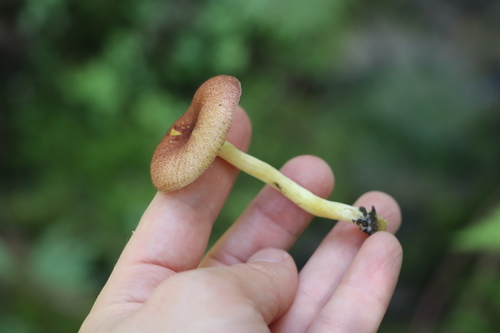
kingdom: Fungi
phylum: Basidiomycota
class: Agaricomycetes
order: Agaricales
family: Tricholomataceae
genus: Tricholomopsis
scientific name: Tricholomopsis rutilans
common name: Plums and custard
